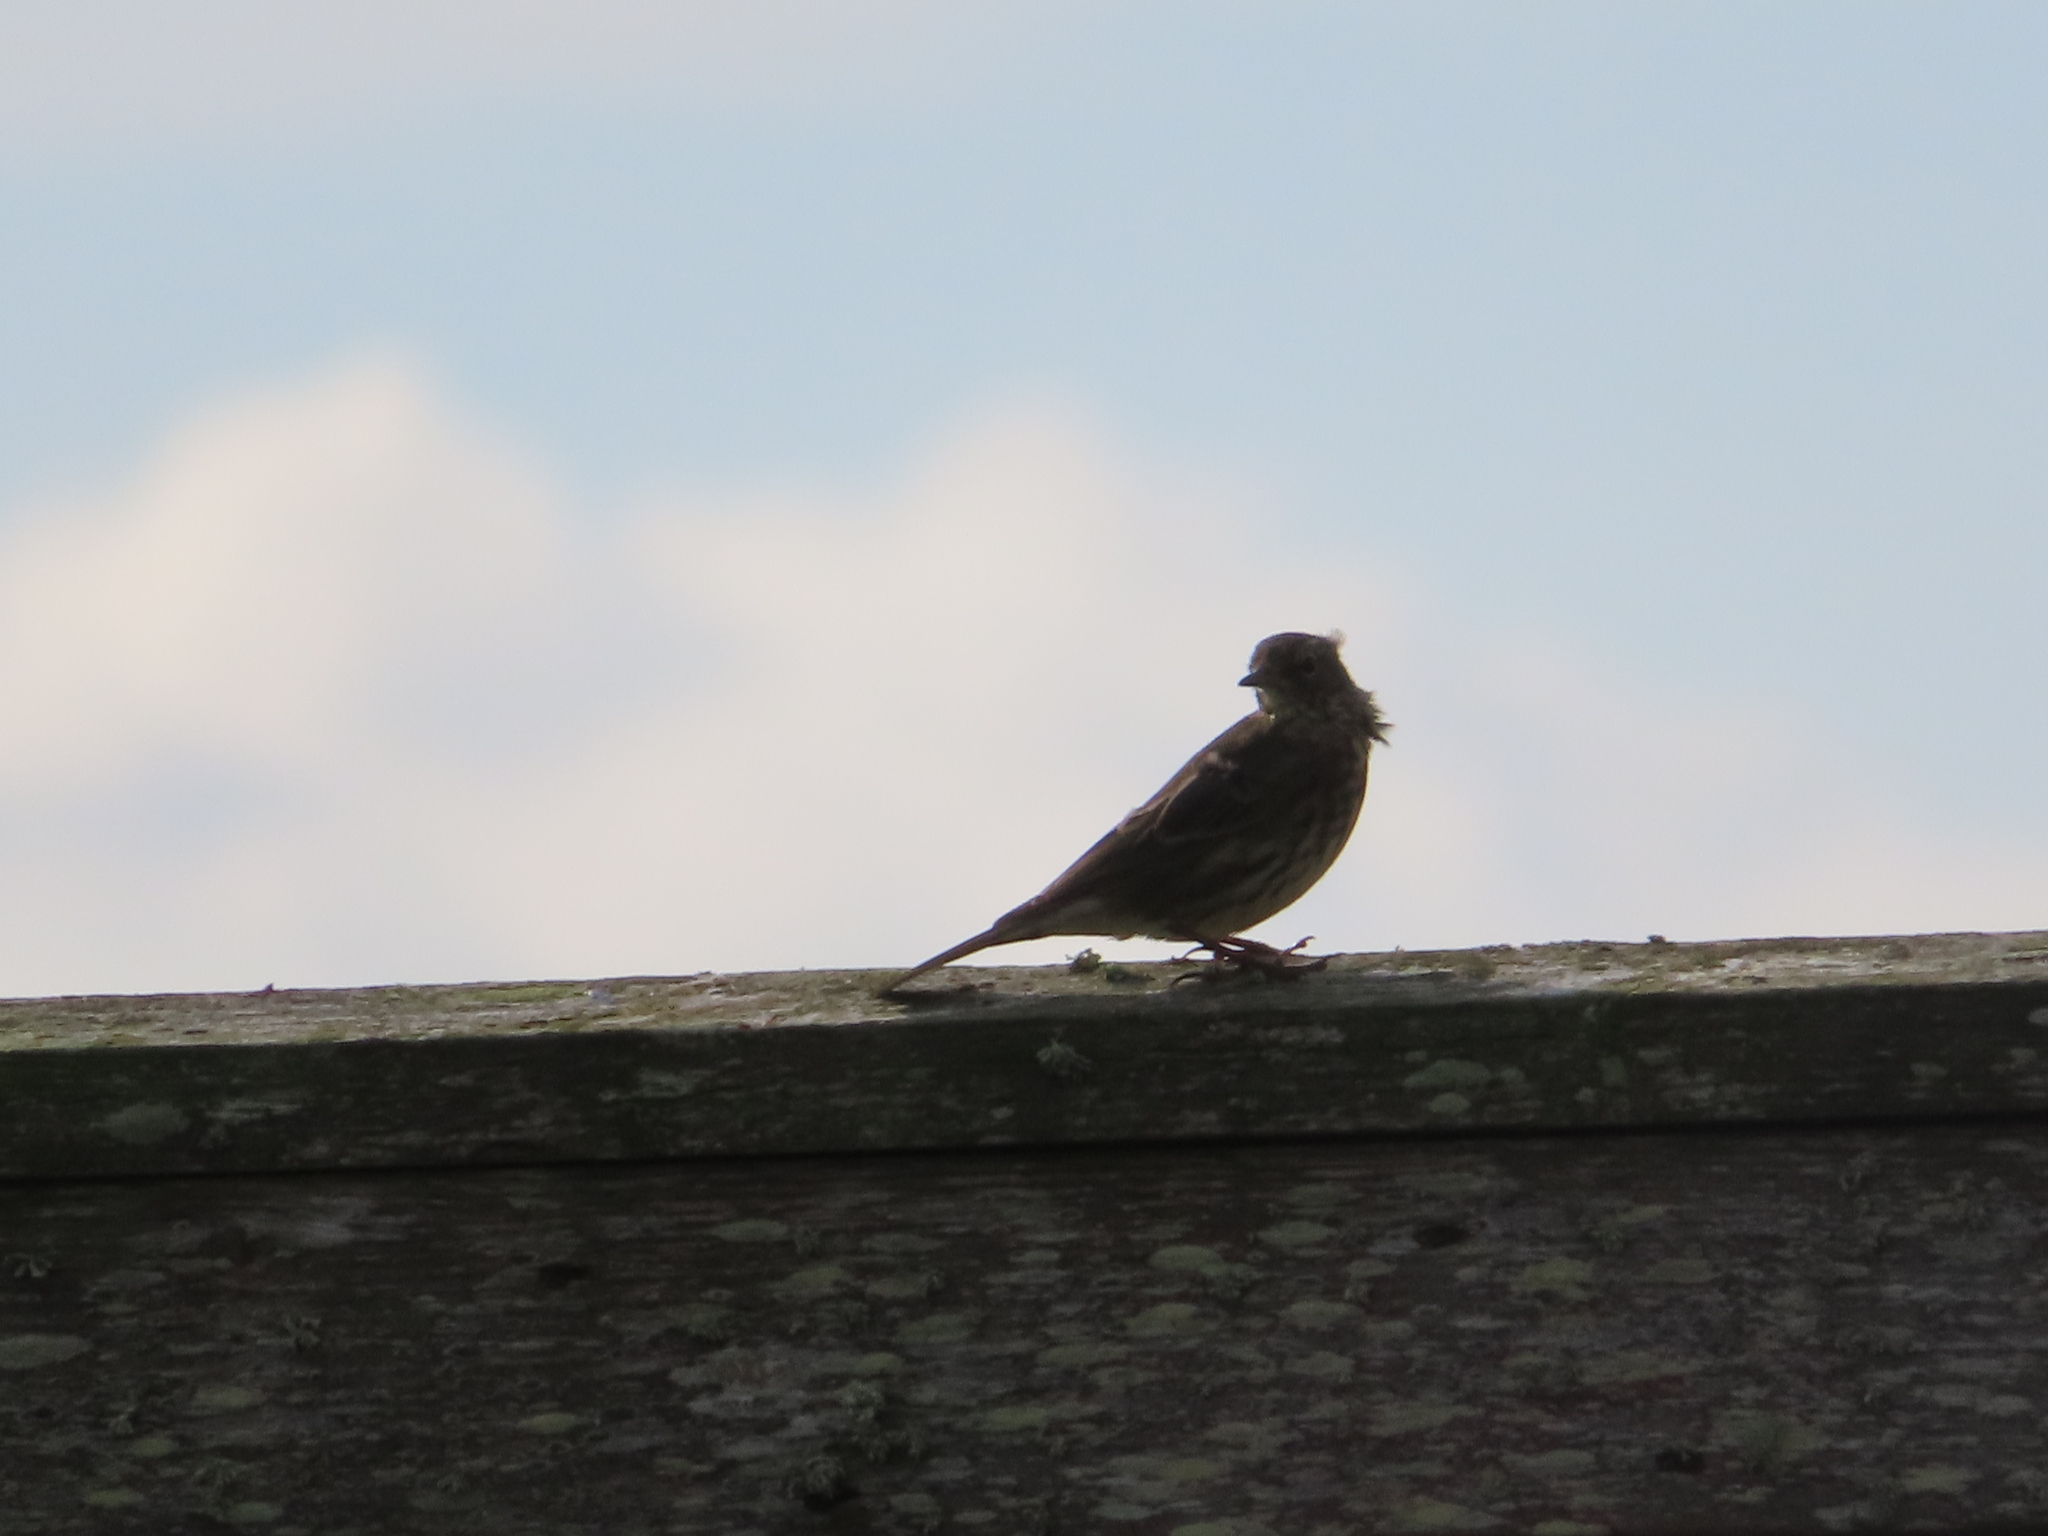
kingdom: Animalia
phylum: Chordata
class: Aves
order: Passeriformes
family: Motacillidae
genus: Anthus
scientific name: Anthus petrosus
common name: Eurasian rock pipit
